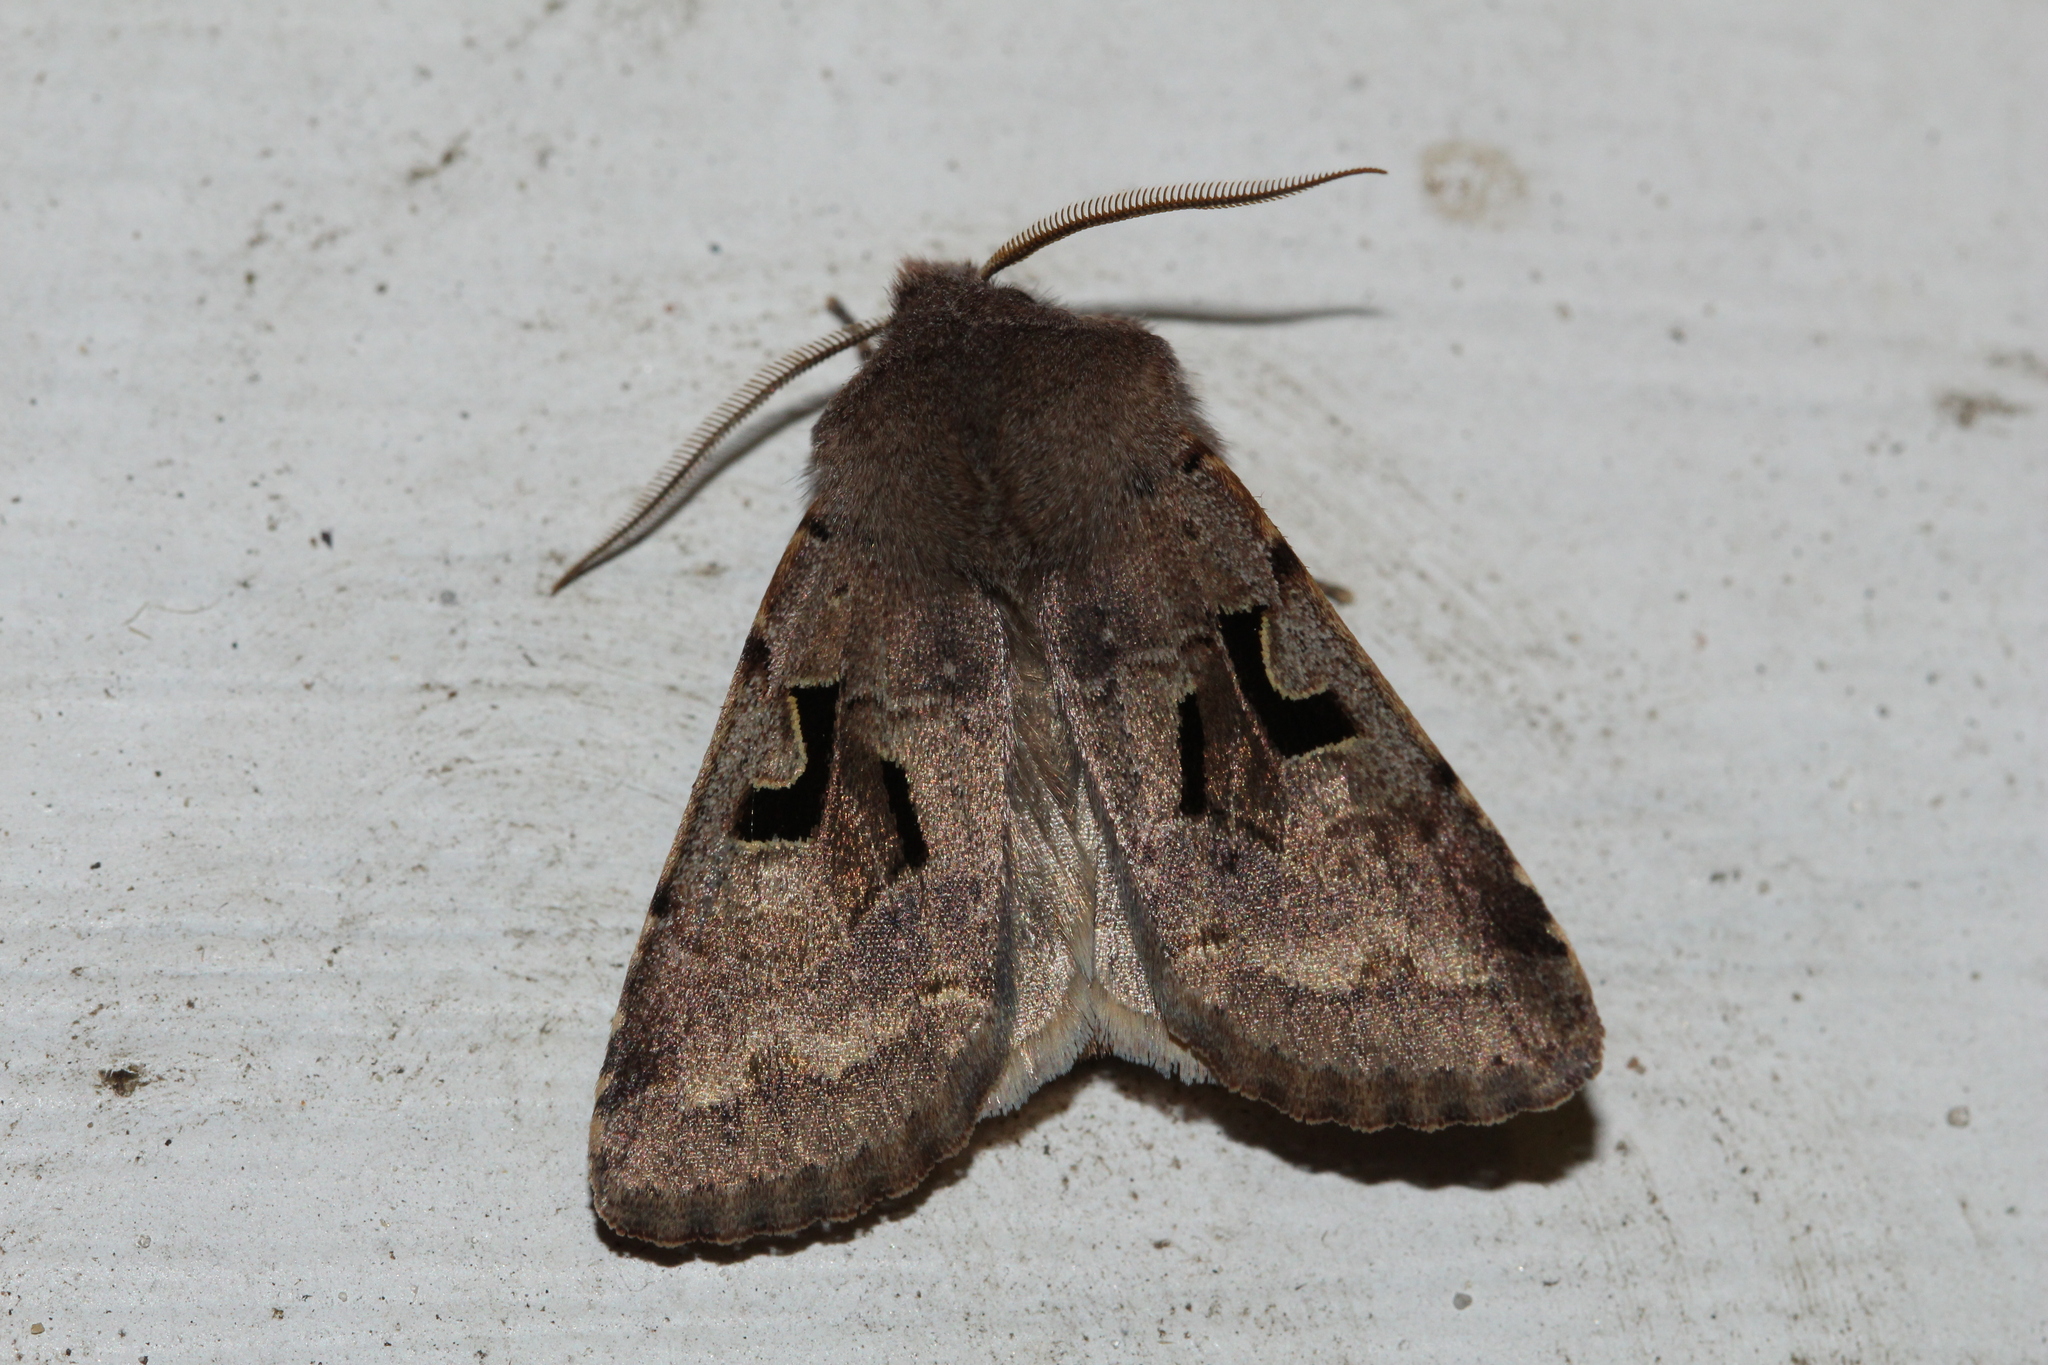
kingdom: Animalia
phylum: Arthropoda
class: Insecta
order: Lepidoptera
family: Noctuidae
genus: Orthosia
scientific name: Orthosia gothica
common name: Hebrew character
